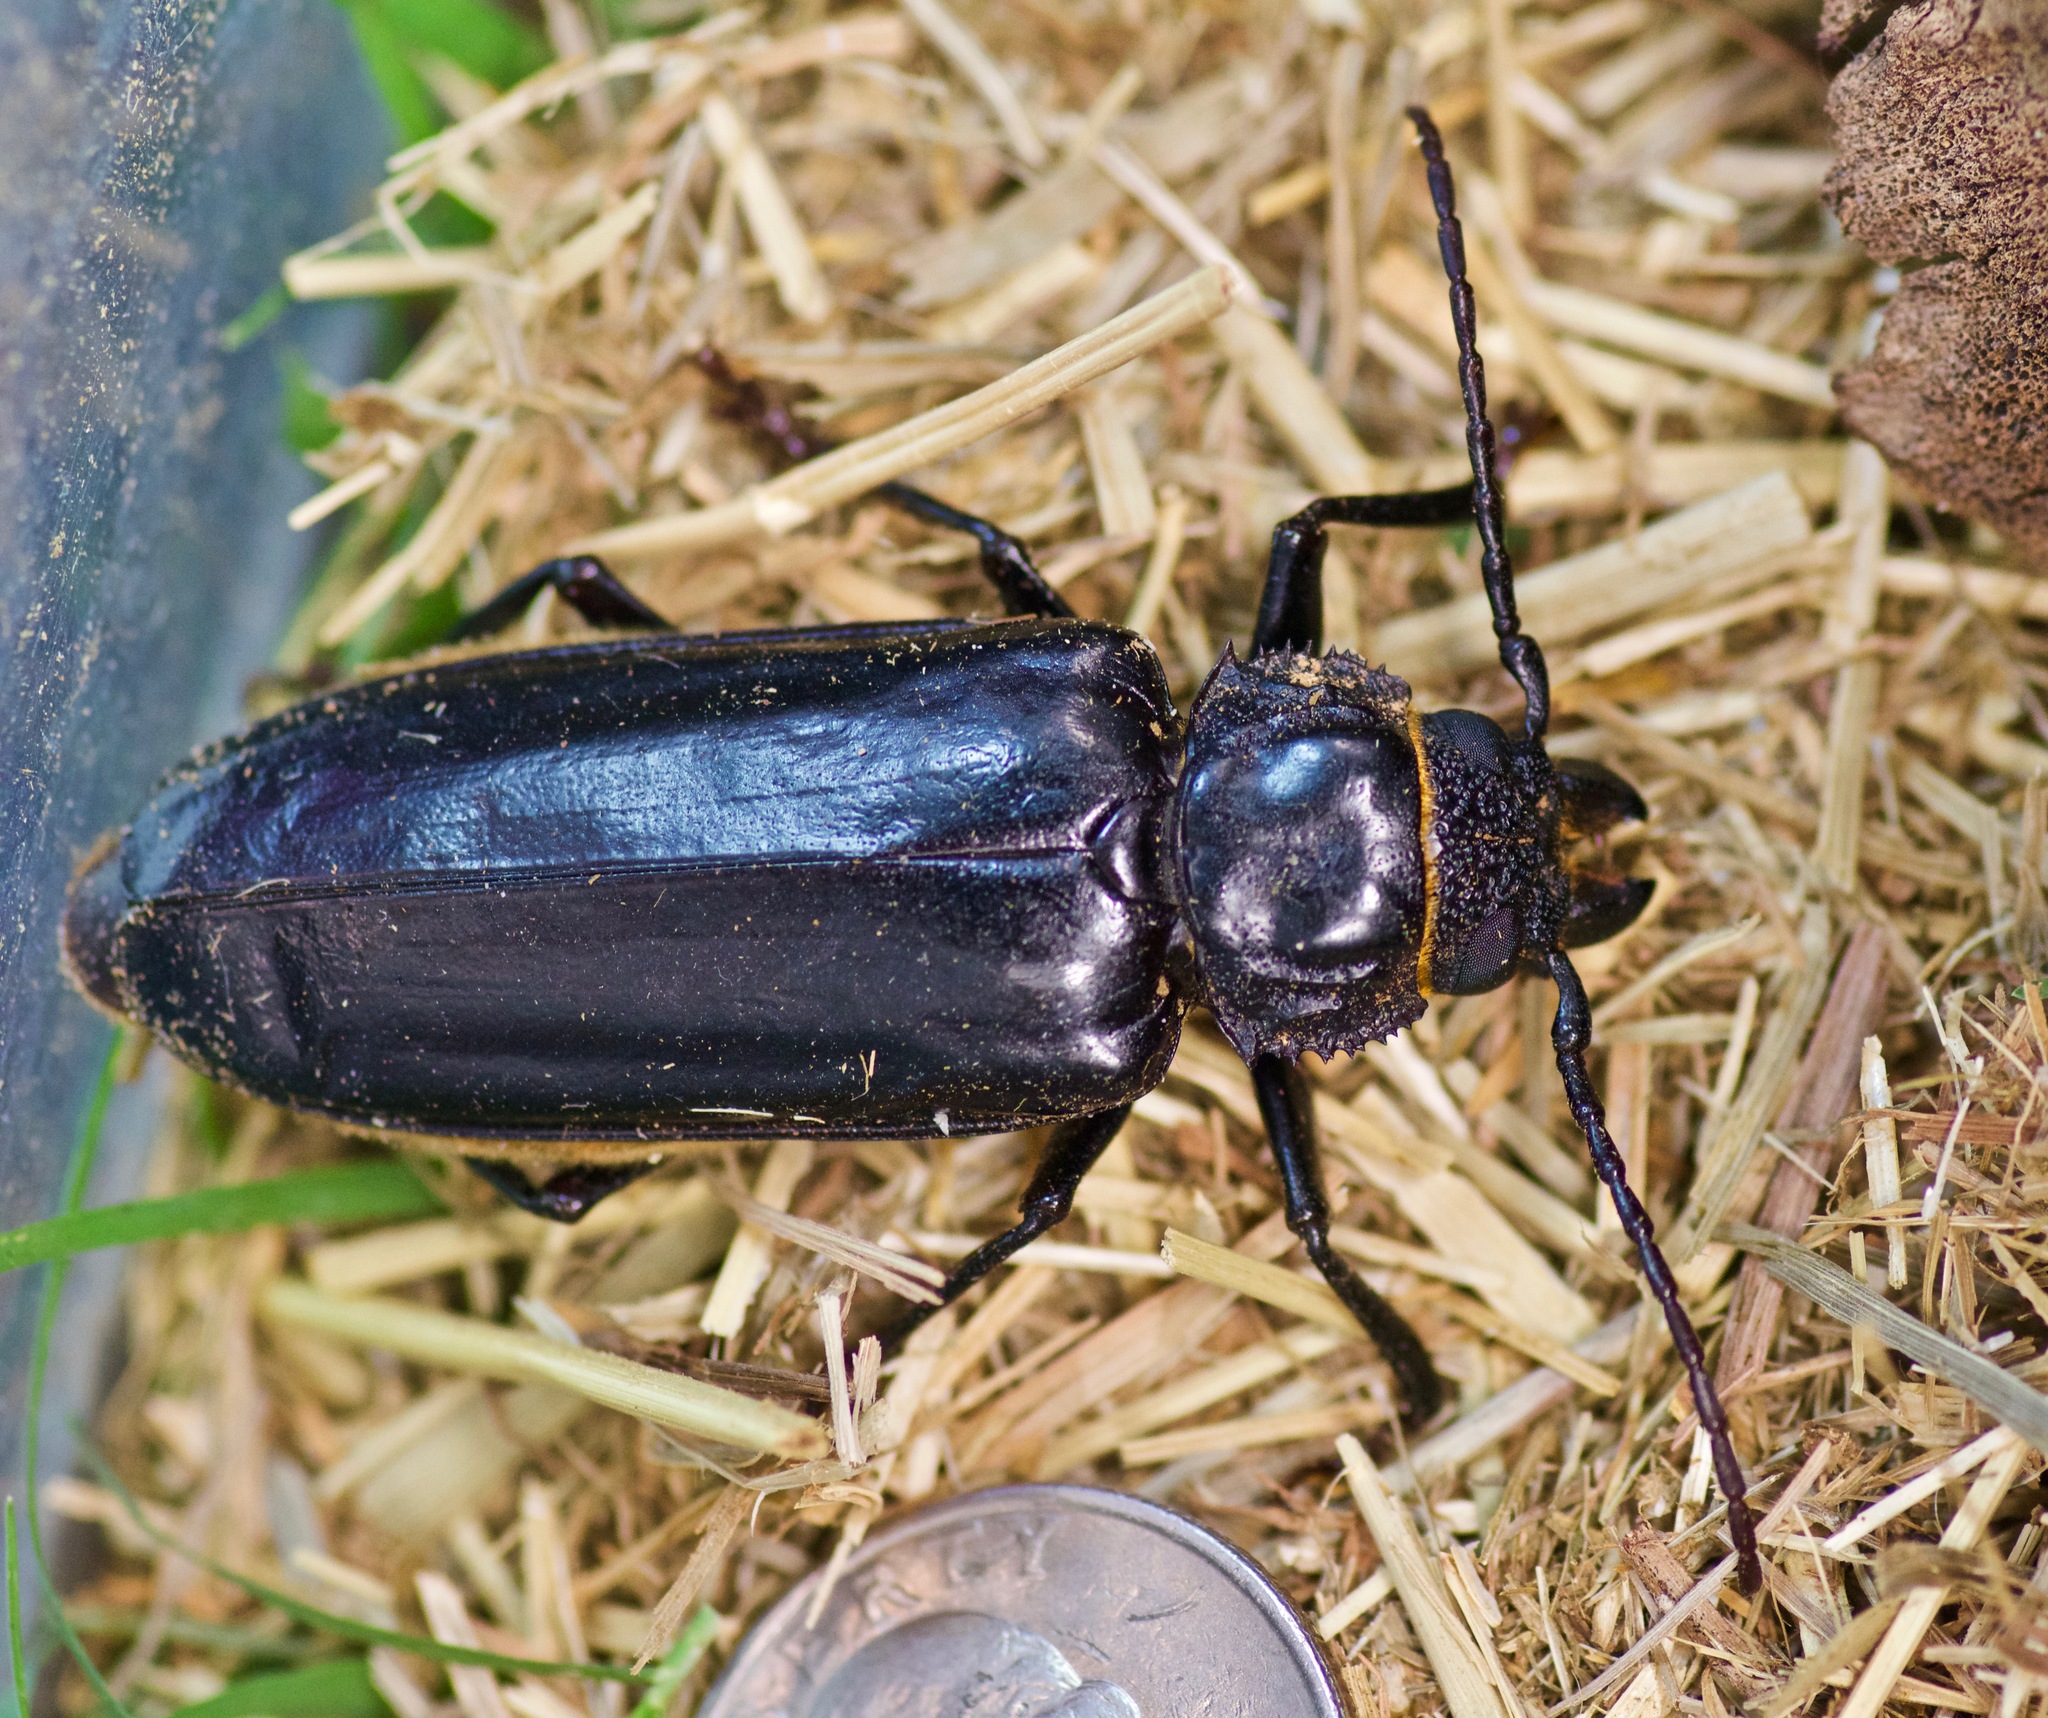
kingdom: Animalia
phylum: Arthropoda
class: Insecta
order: Coleoptera
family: Cerambycidae
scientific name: Cerambycidae
